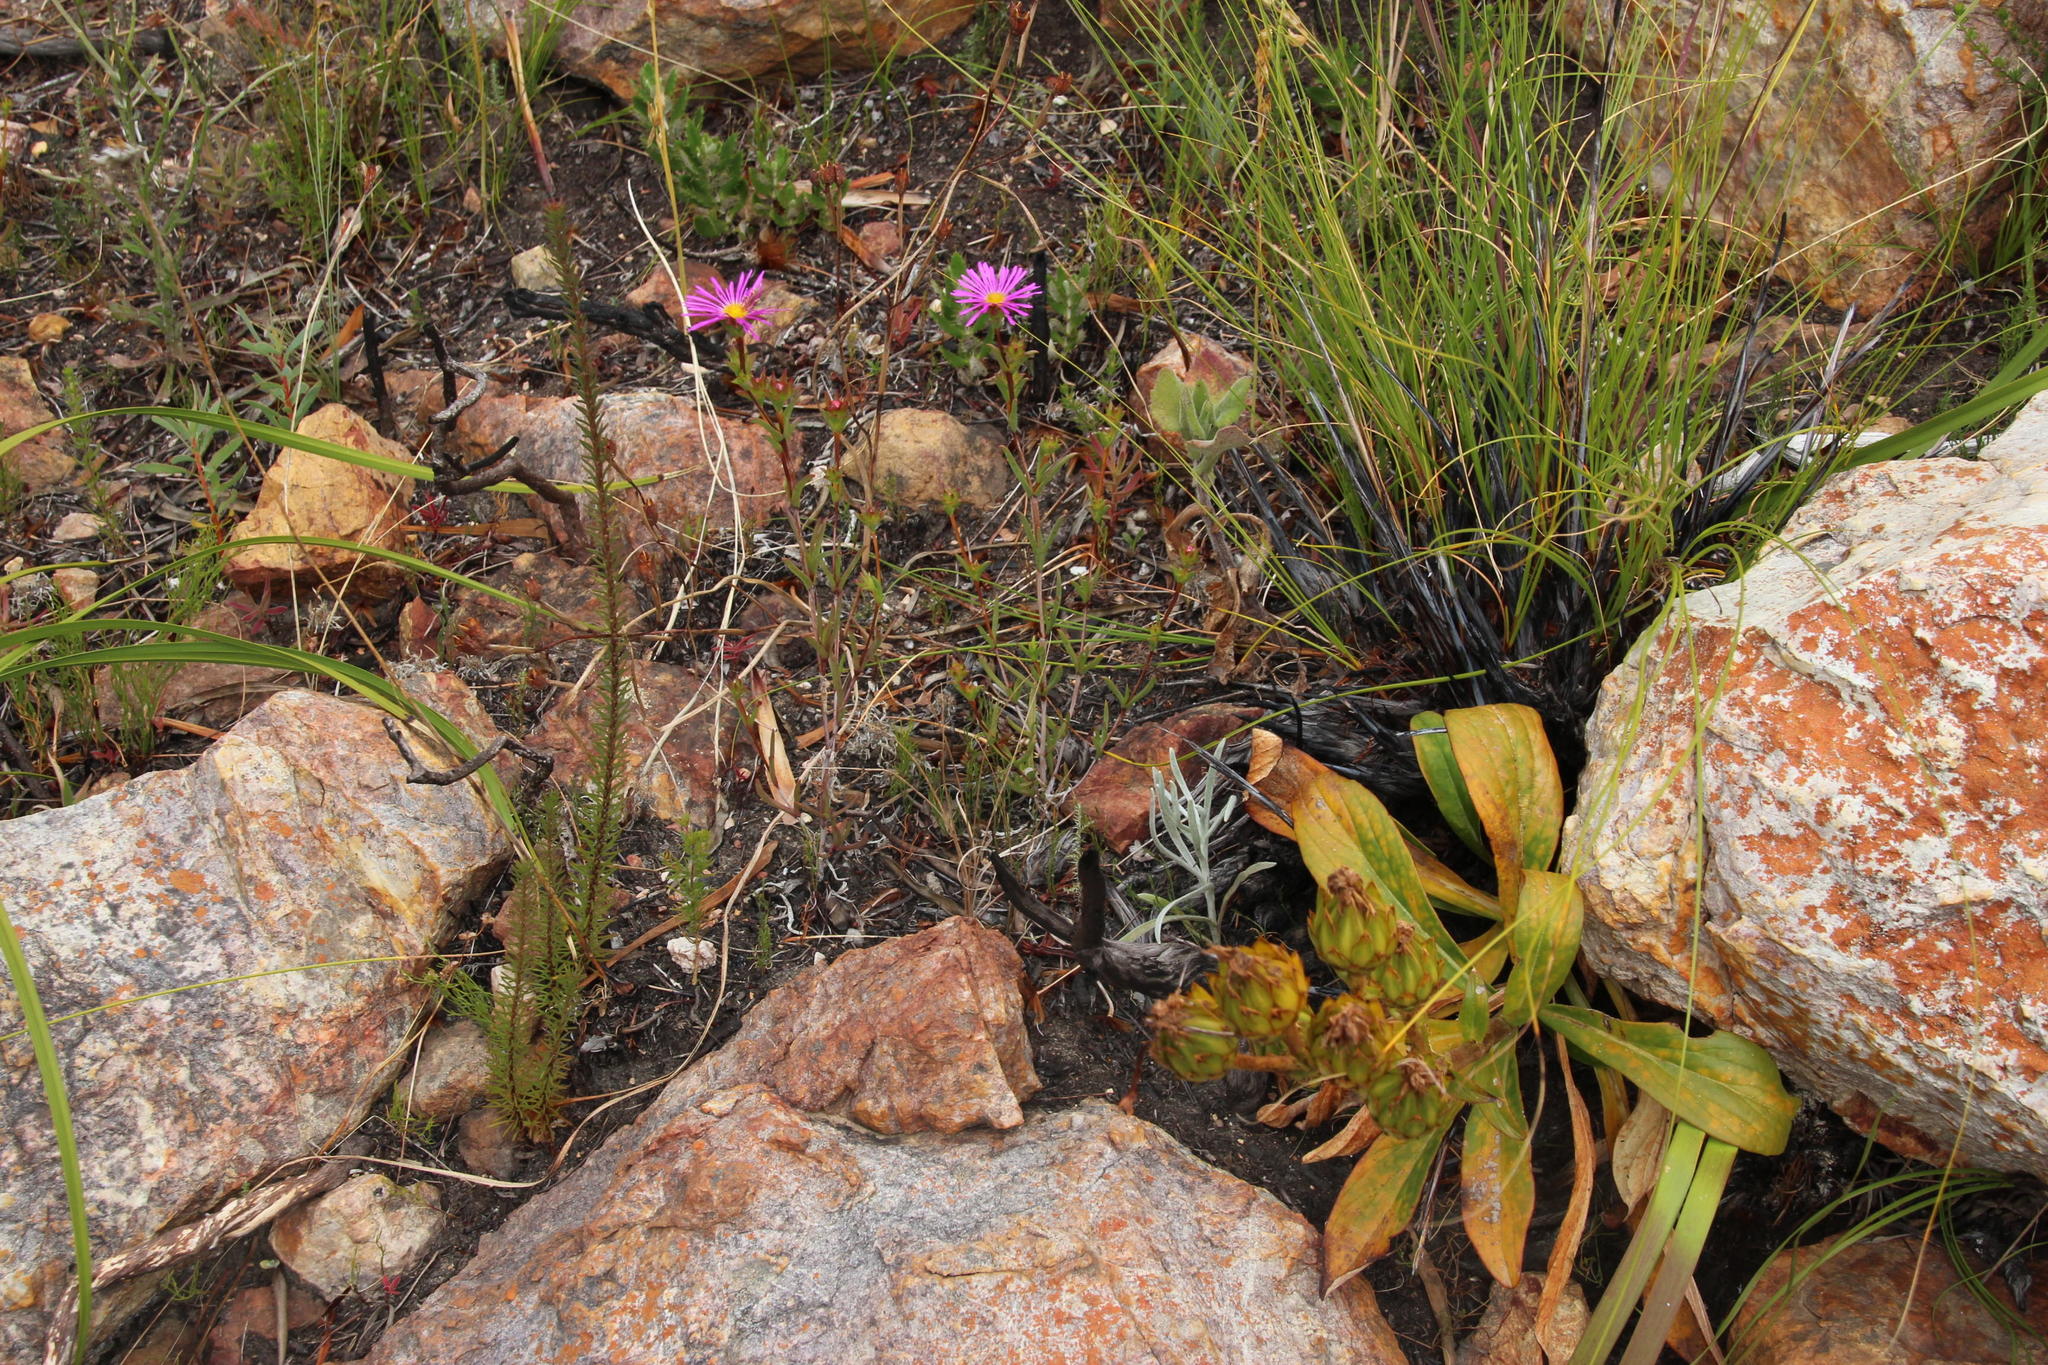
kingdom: Plantae
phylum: Tracheophyta
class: Magnoliopsida
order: Caryophyllales
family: Aizoaceae
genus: Erepsia
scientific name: Erepsia bracteata
